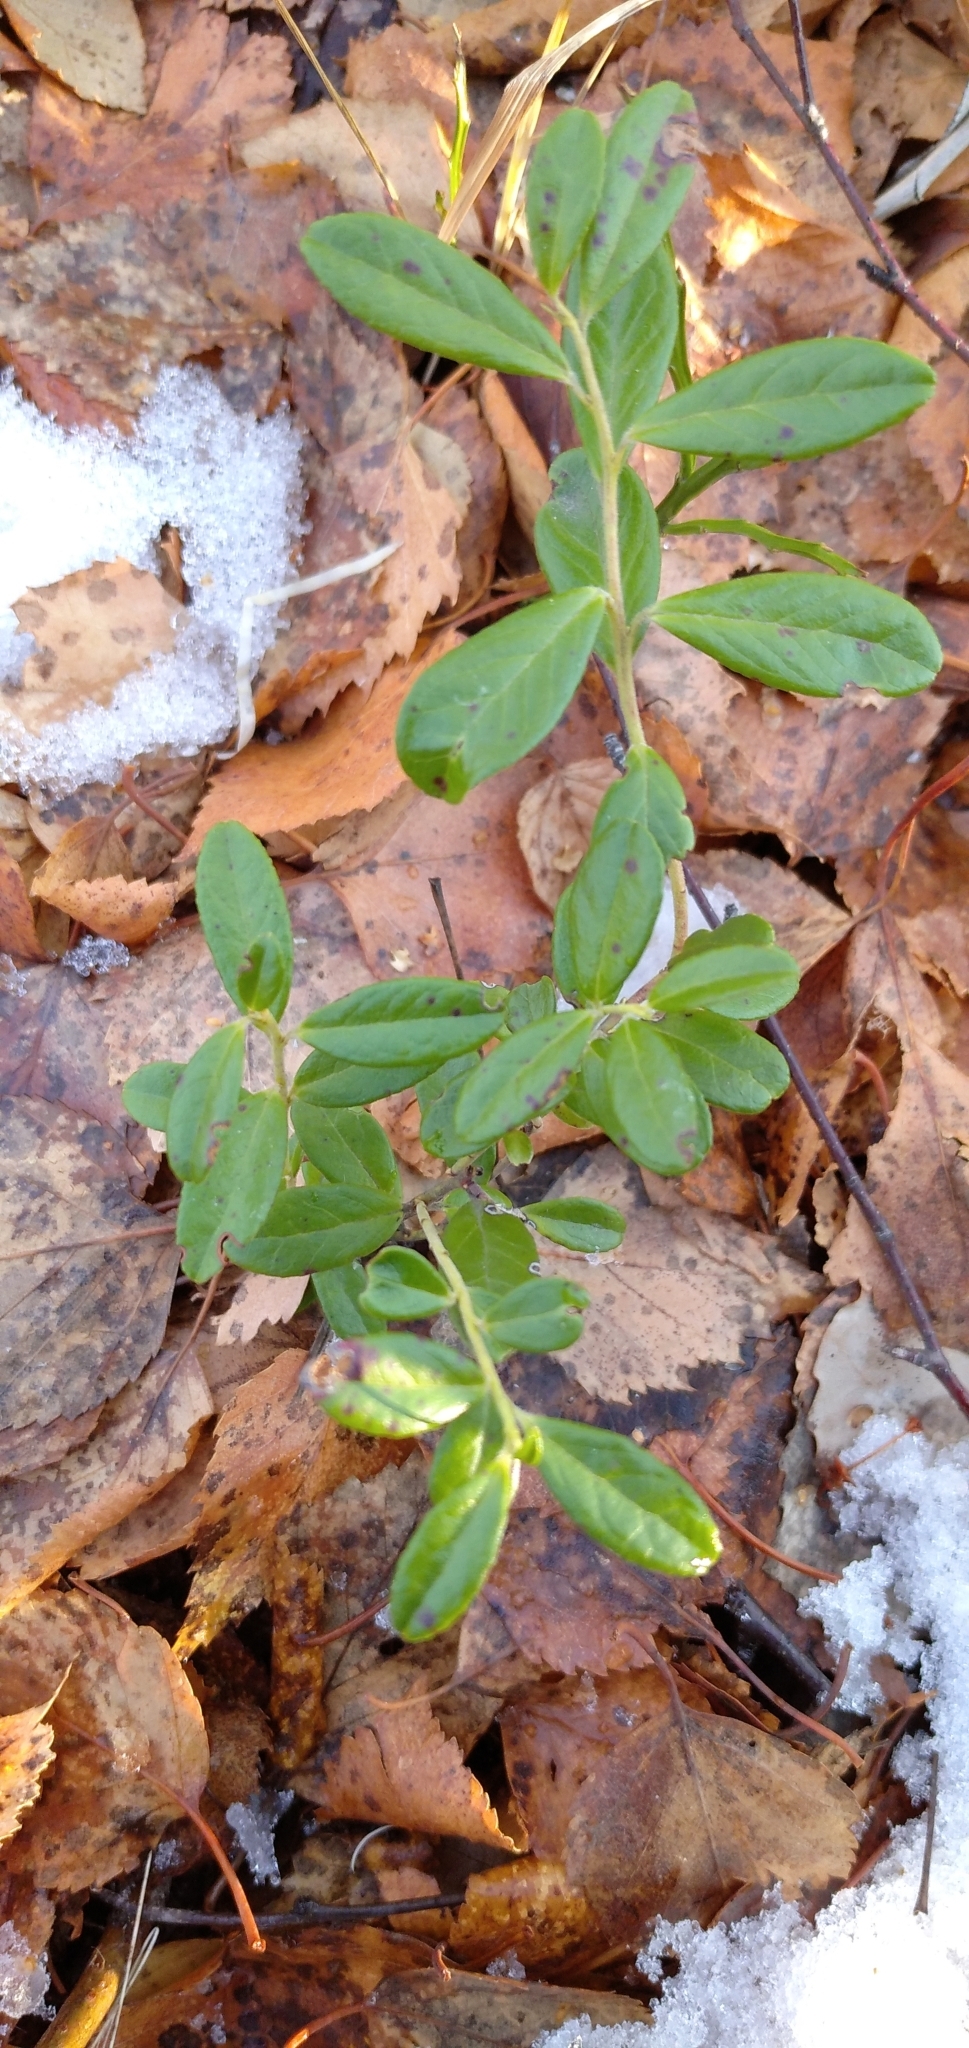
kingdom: Plantae
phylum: Tracheophyta
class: Magnoliopsida
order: Ericales
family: Ericaceae
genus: Vaccinium
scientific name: Vaccinium vitis-idaea
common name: Cowberry
